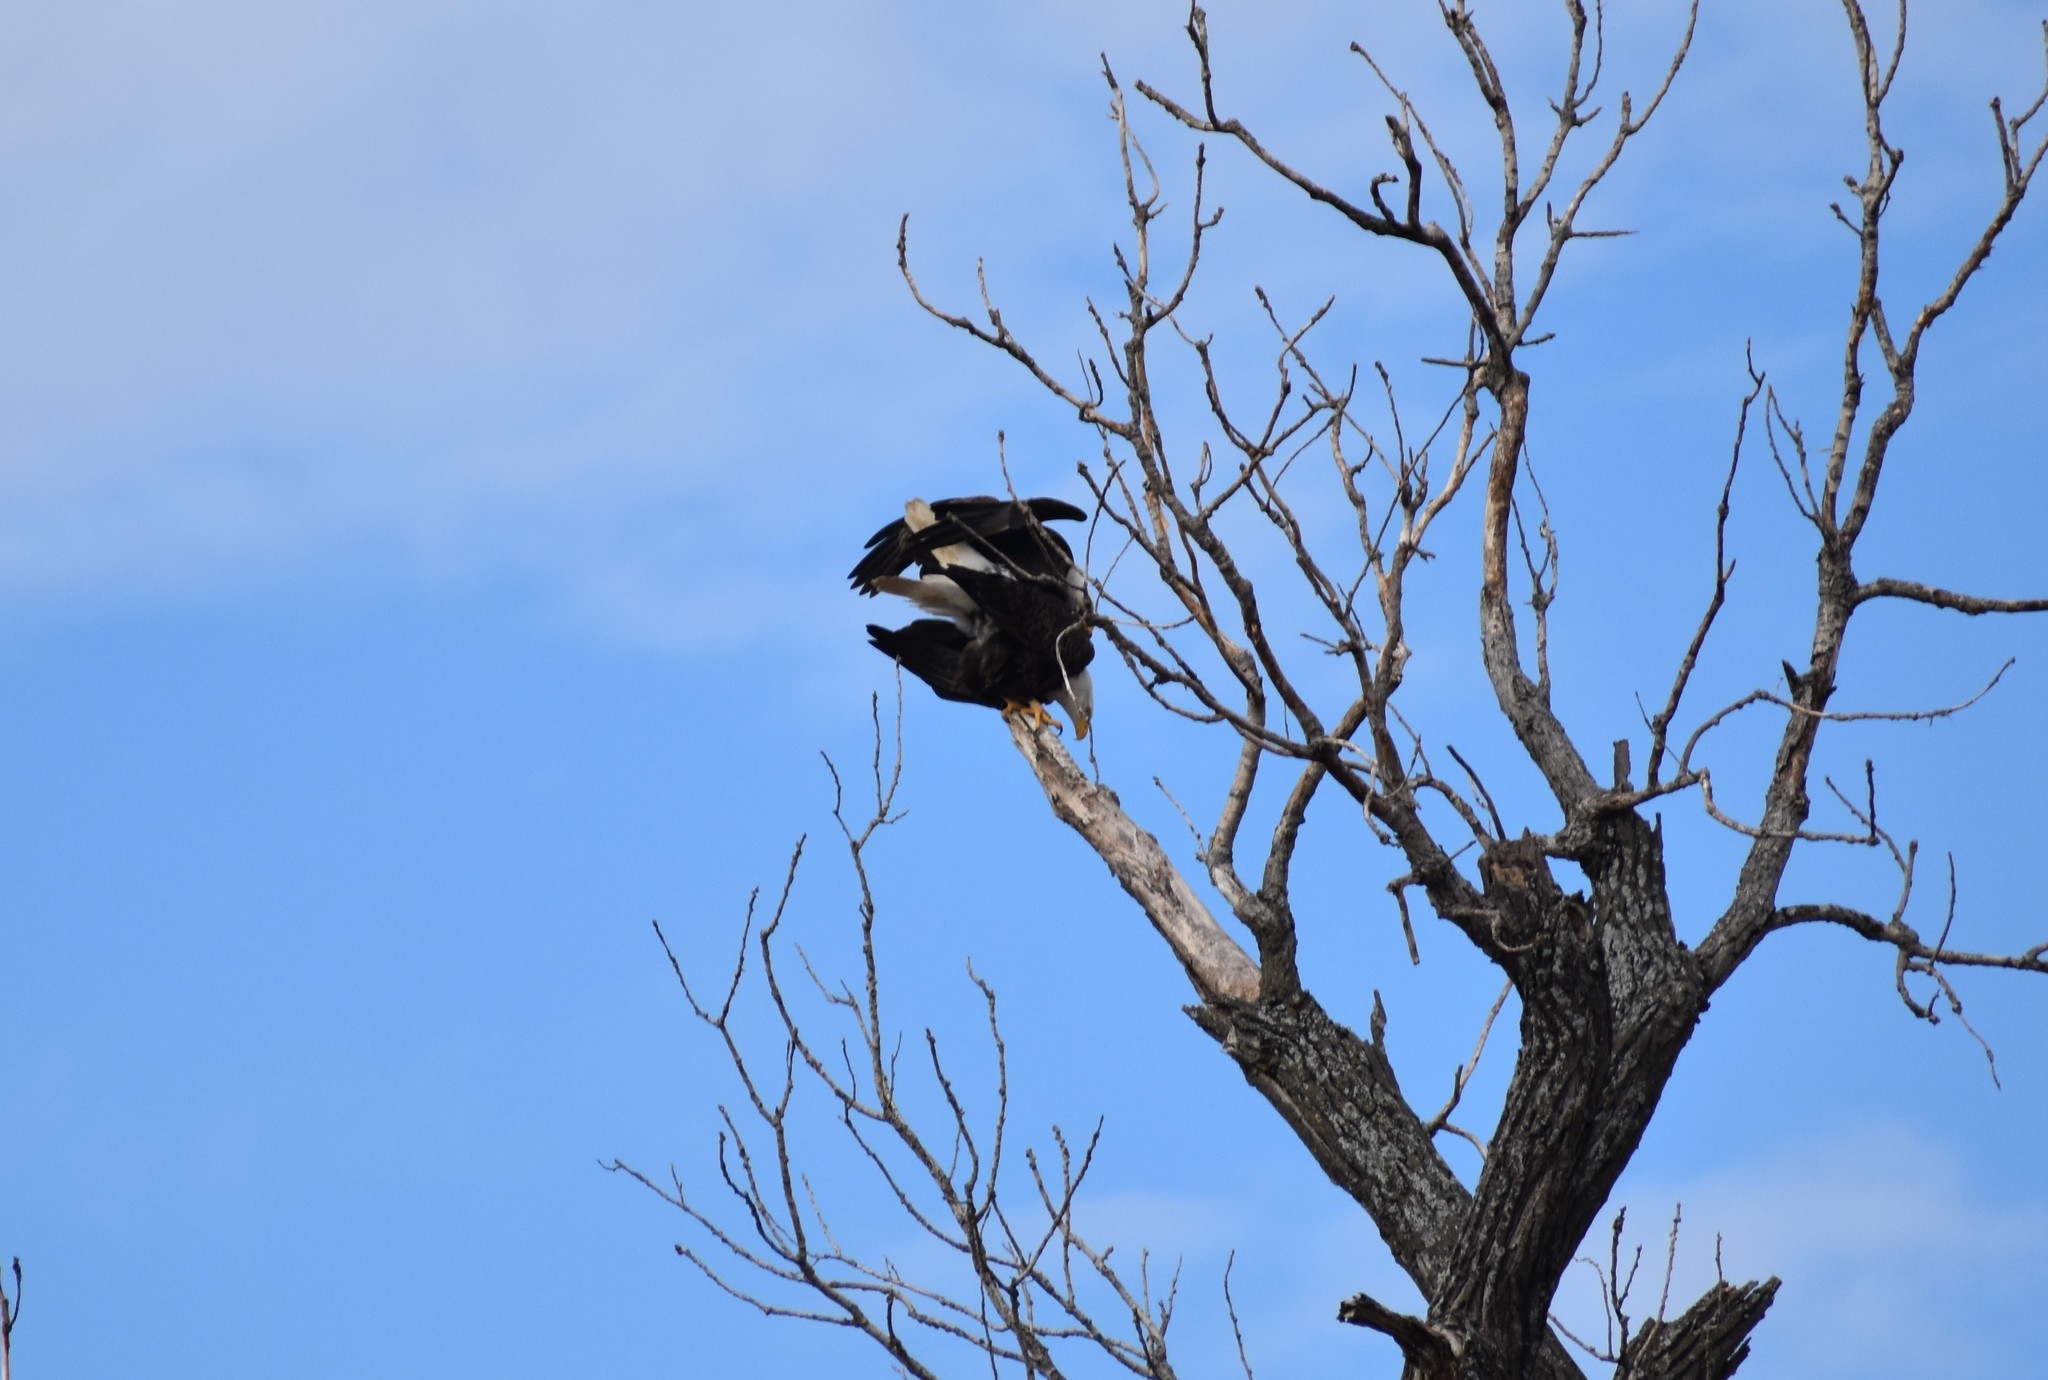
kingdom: Animalia
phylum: Chordata
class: Aves
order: Accipitriformes
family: Accipitridae
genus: Haliaeetus
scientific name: Haliaeetus leucocephalus
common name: Bald eagle
